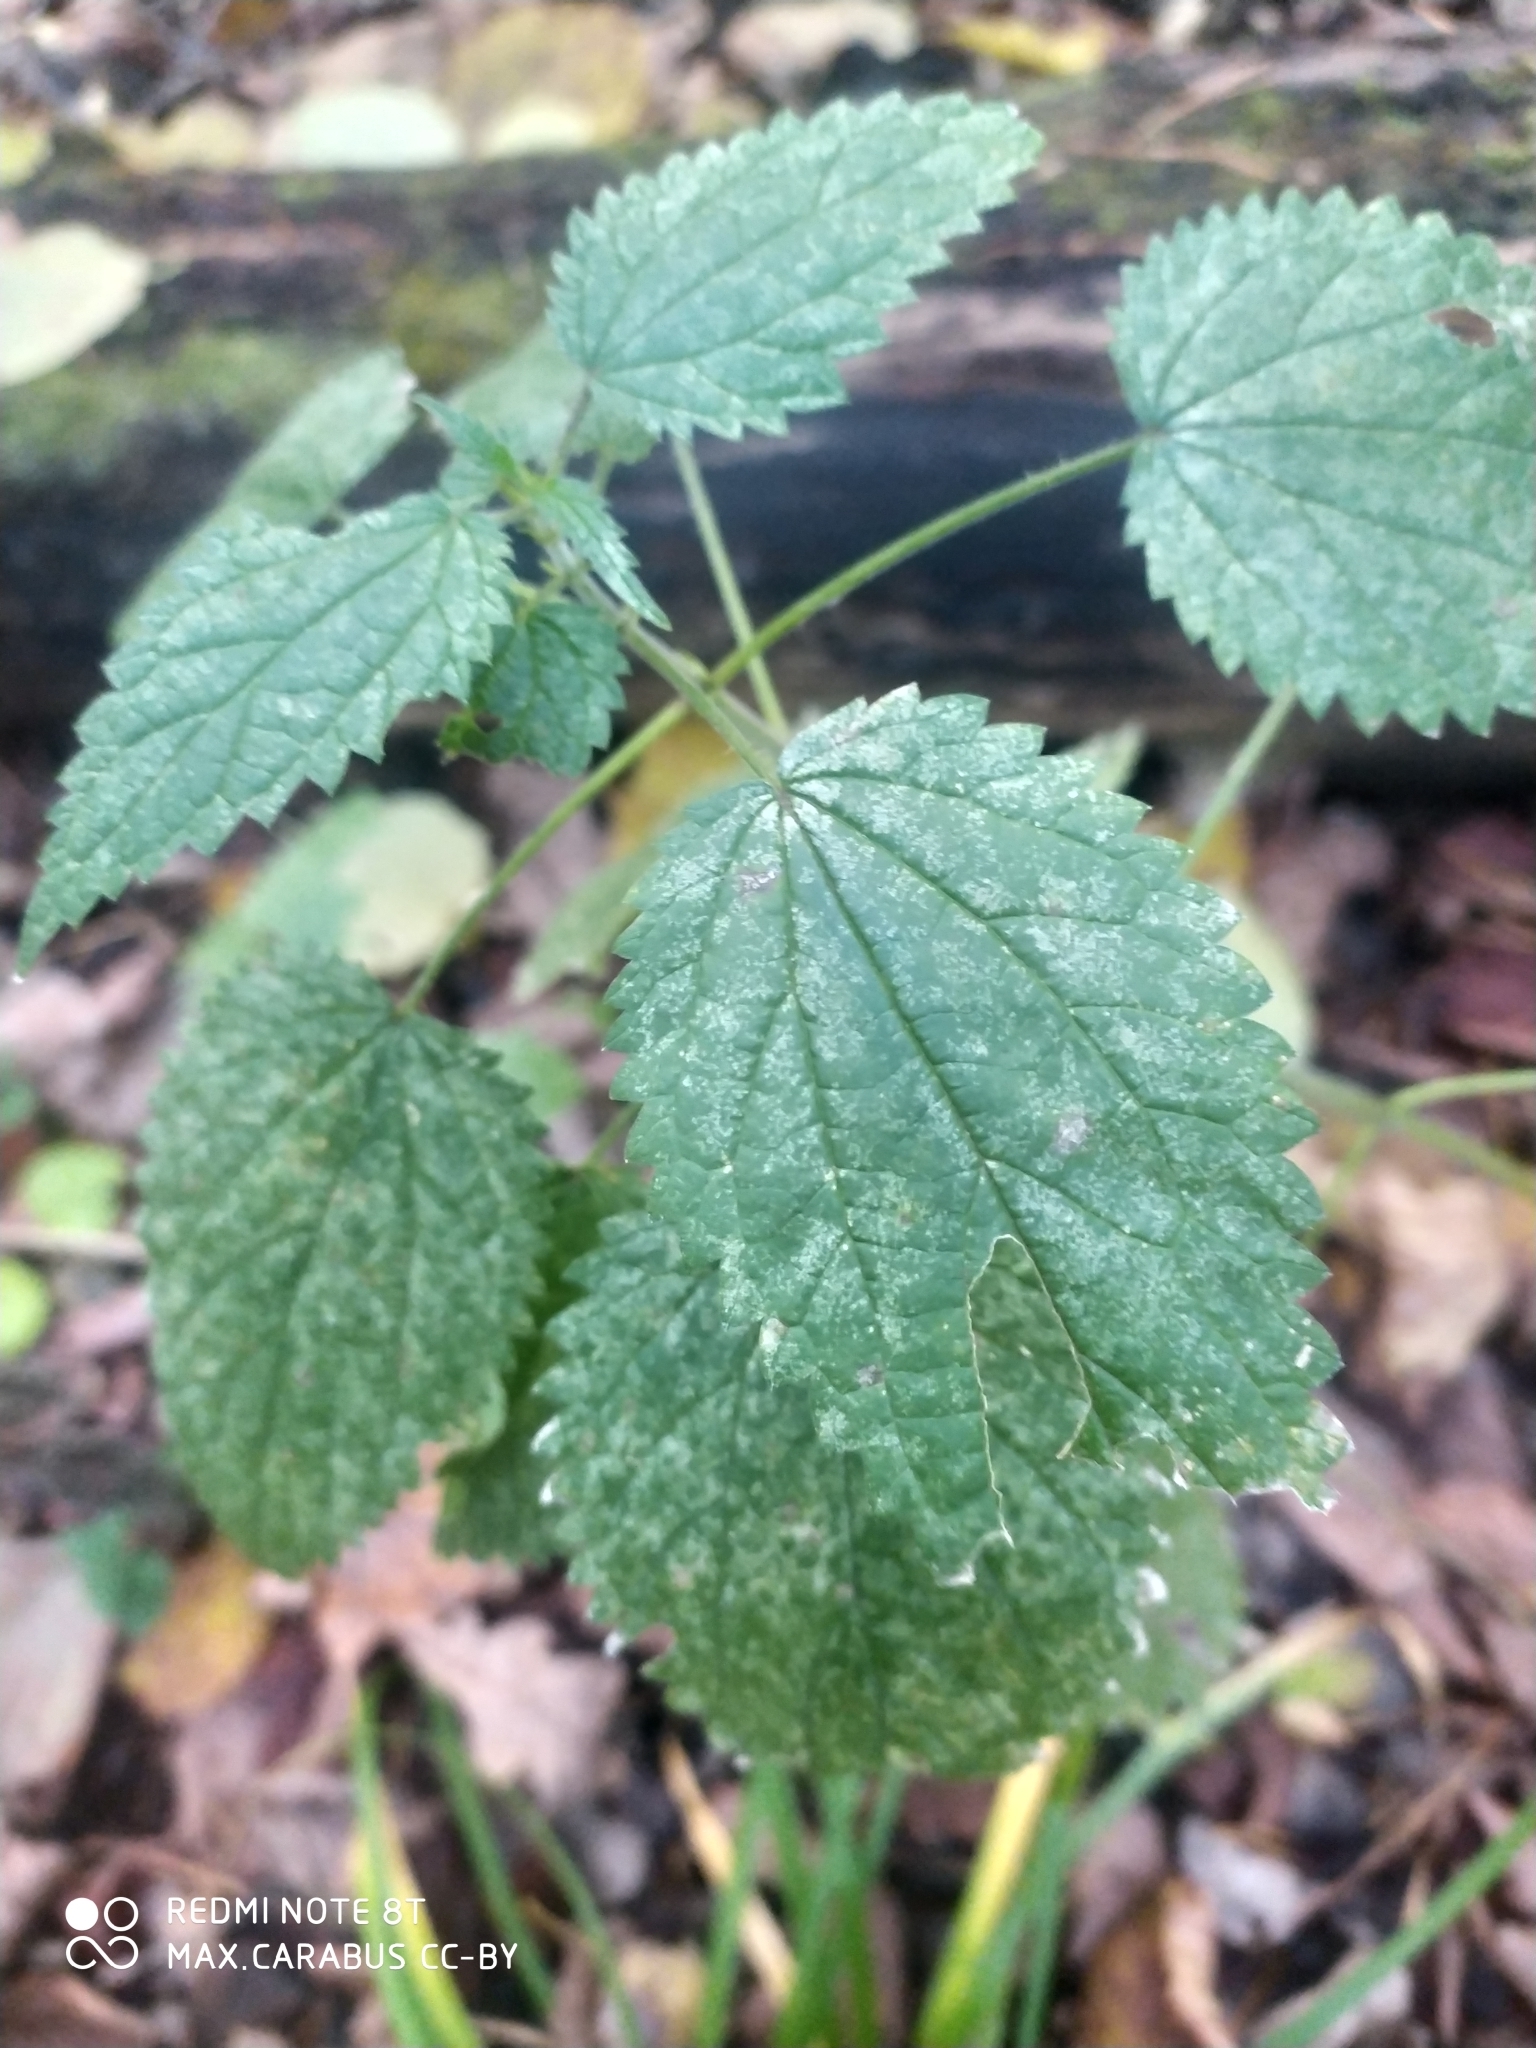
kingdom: Plantae
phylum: Tracheophyta
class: Magnoliopsida
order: Rosales
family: Urticaceae
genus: Urtica
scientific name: Urtica dioica
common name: Common nettle
